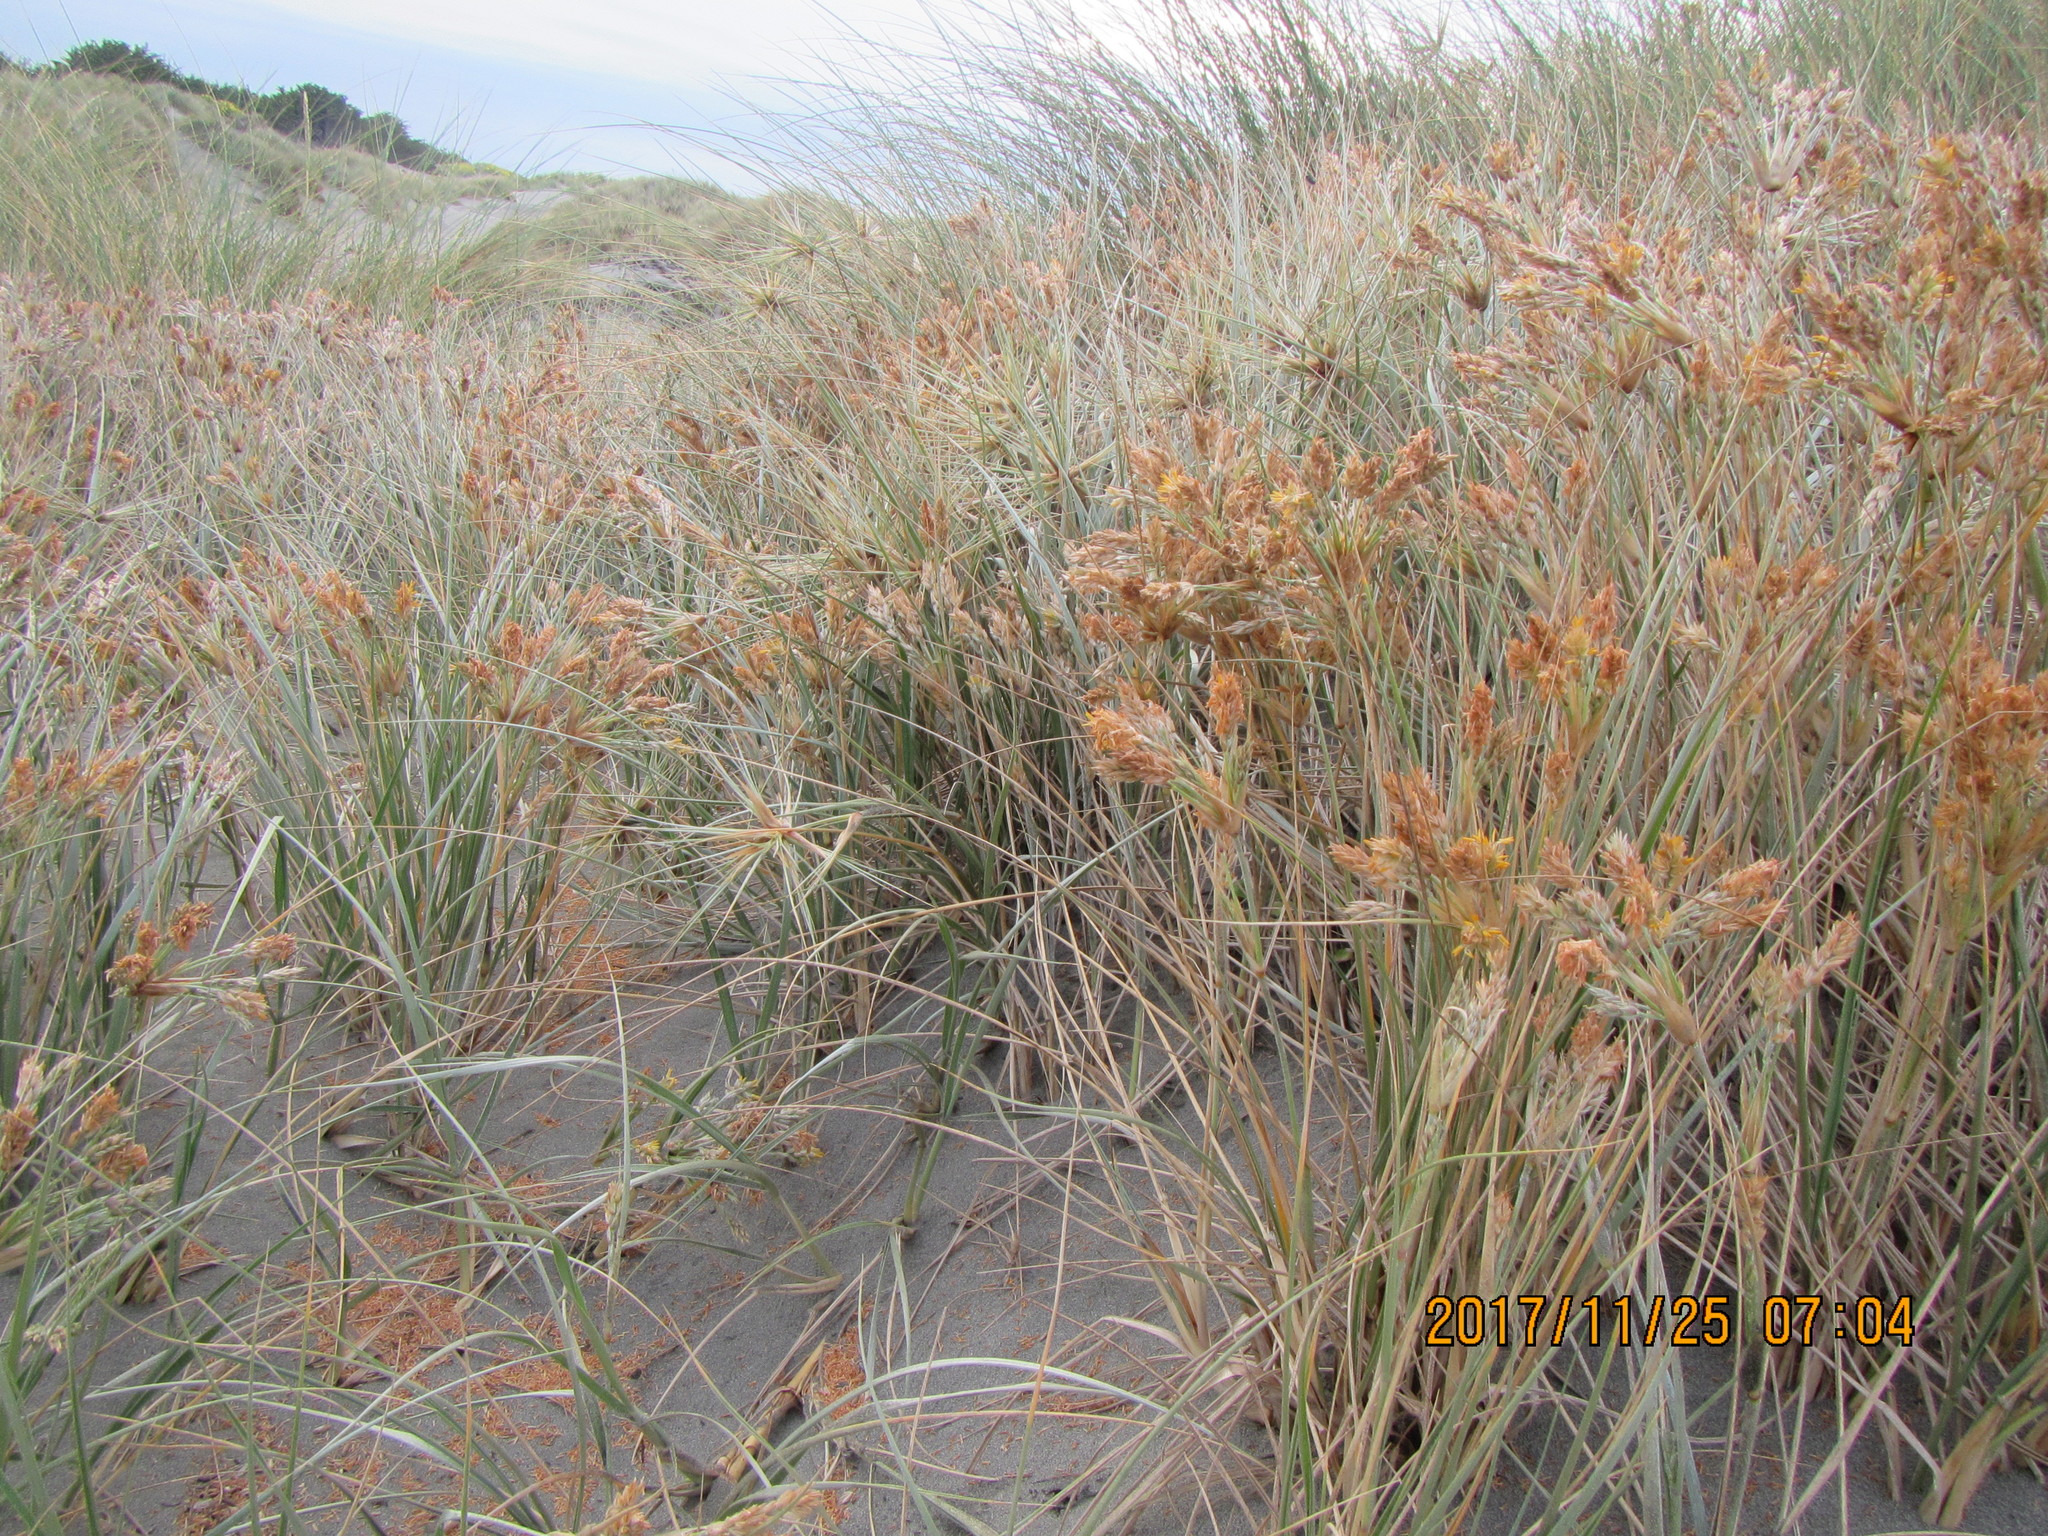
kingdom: Plantae
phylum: Tracheophyta
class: Liliopsida
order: Poales
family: Poaceae
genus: Spinifex
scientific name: Spinifex sericeus
